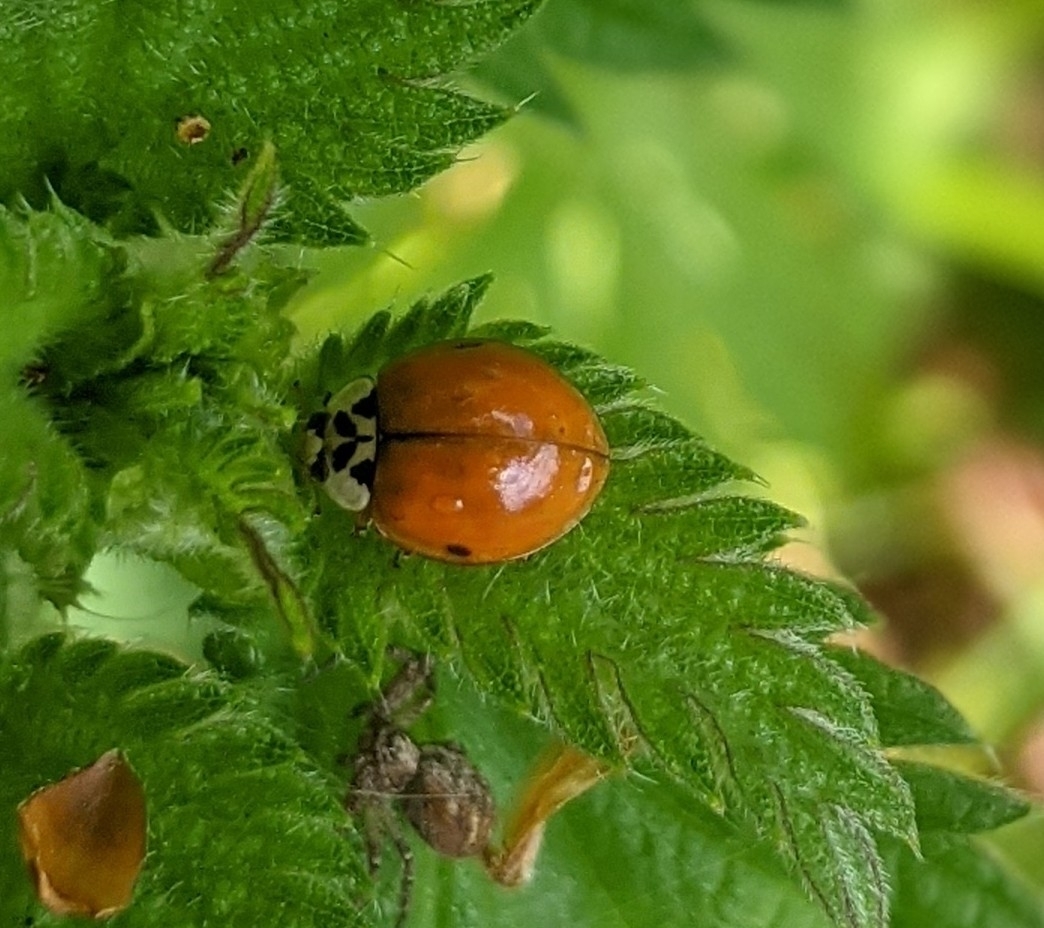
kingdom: Animalia
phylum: Arthropoda
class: Insecta
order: Coleoptera
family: Coccinellidae
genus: Harmonia
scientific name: Harmonia axyridis
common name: Harlequin ladybird
